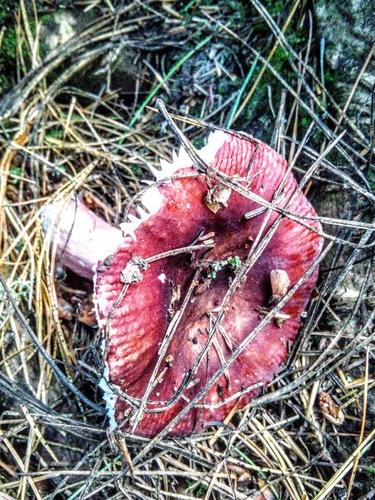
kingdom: Fungi
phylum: Basidiomycota
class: Agaricomycetes
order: Russulales
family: Russulaceae
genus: Russula
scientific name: Russula sanguinea
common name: Bloody brittlegill
